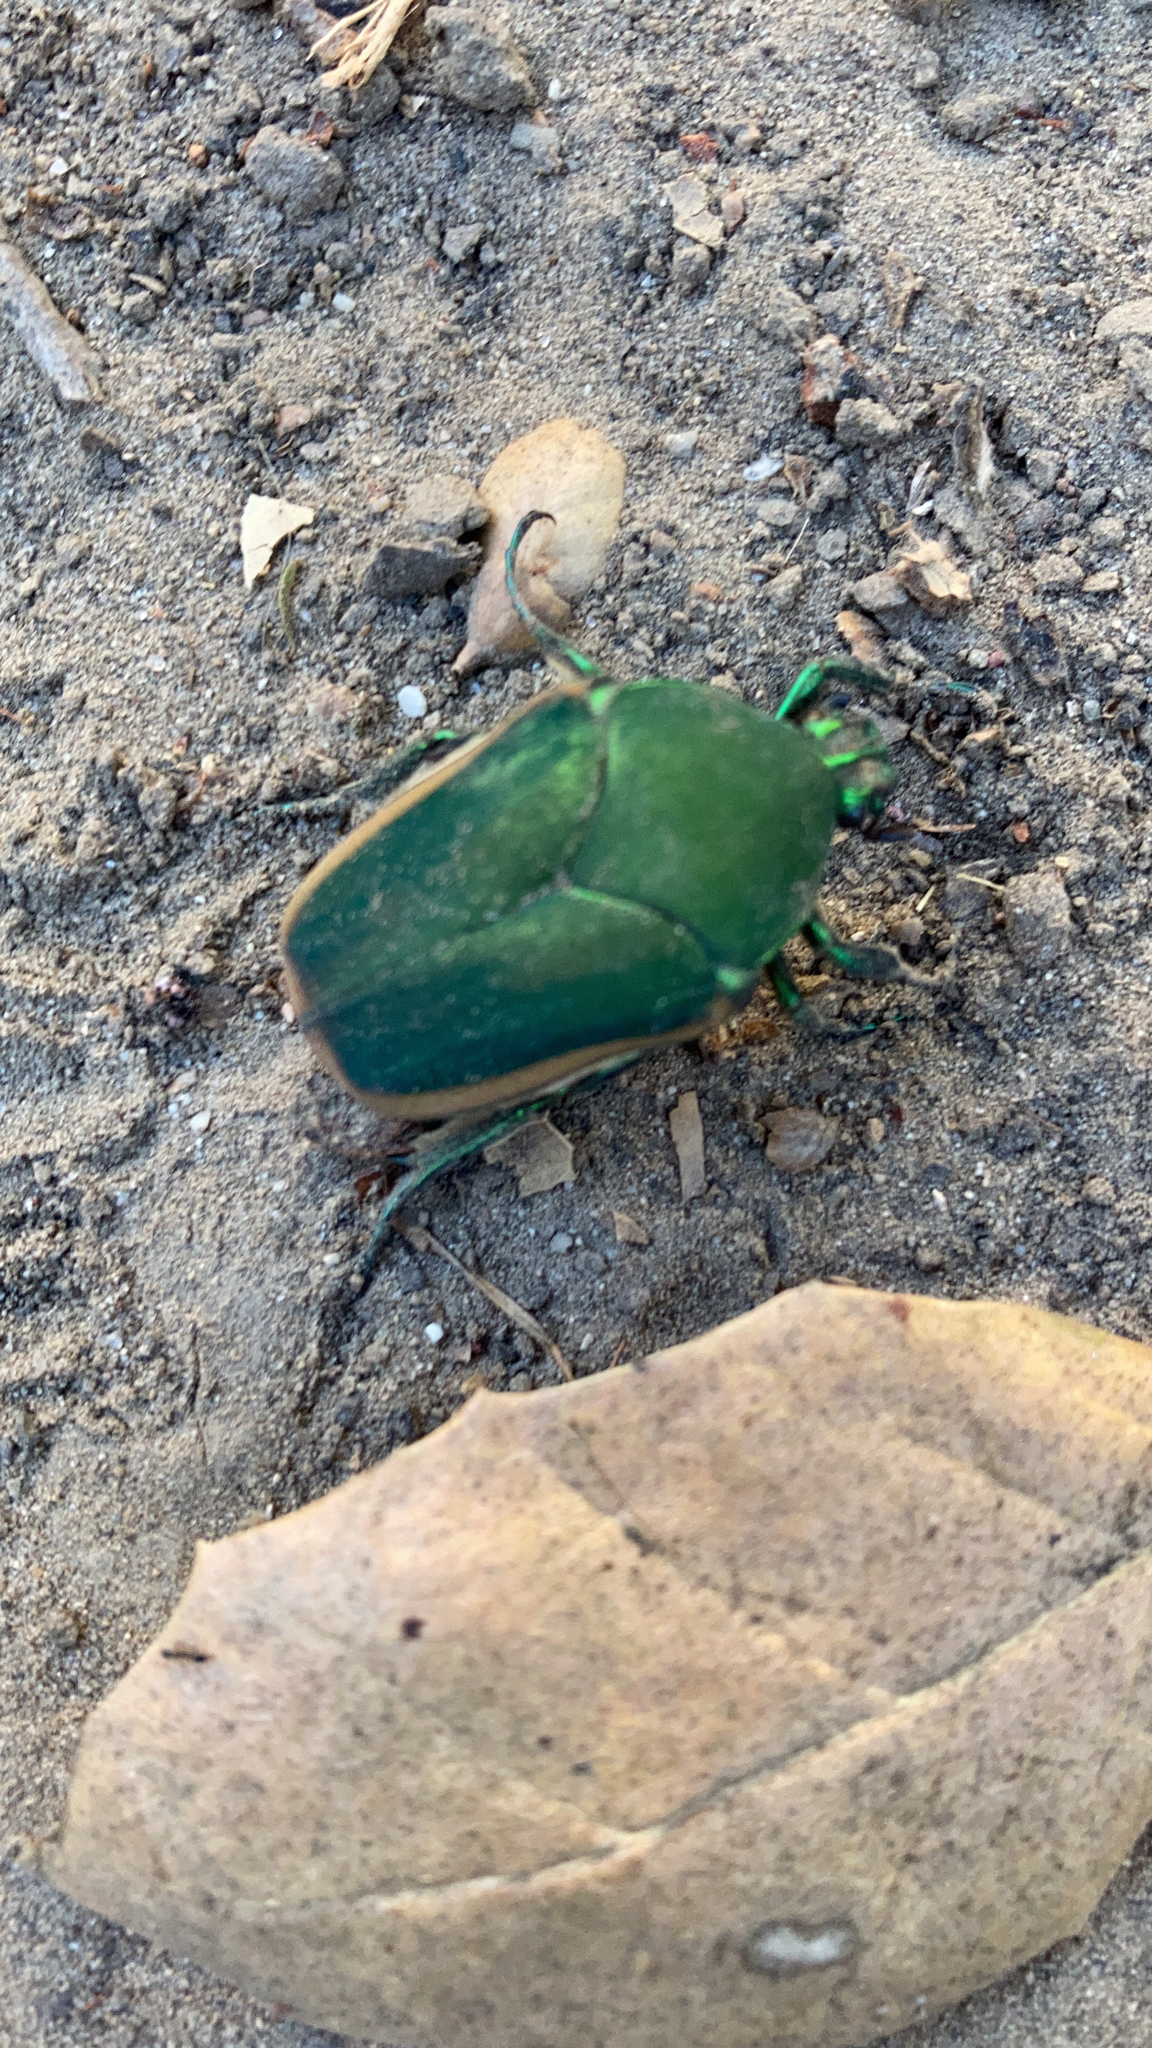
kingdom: Animalia
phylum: Arthropoda
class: Insecta
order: Coleoptera
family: Scarabaeidae
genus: Cotinis
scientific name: Cotinis mutabilis
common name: Figeater beetle
